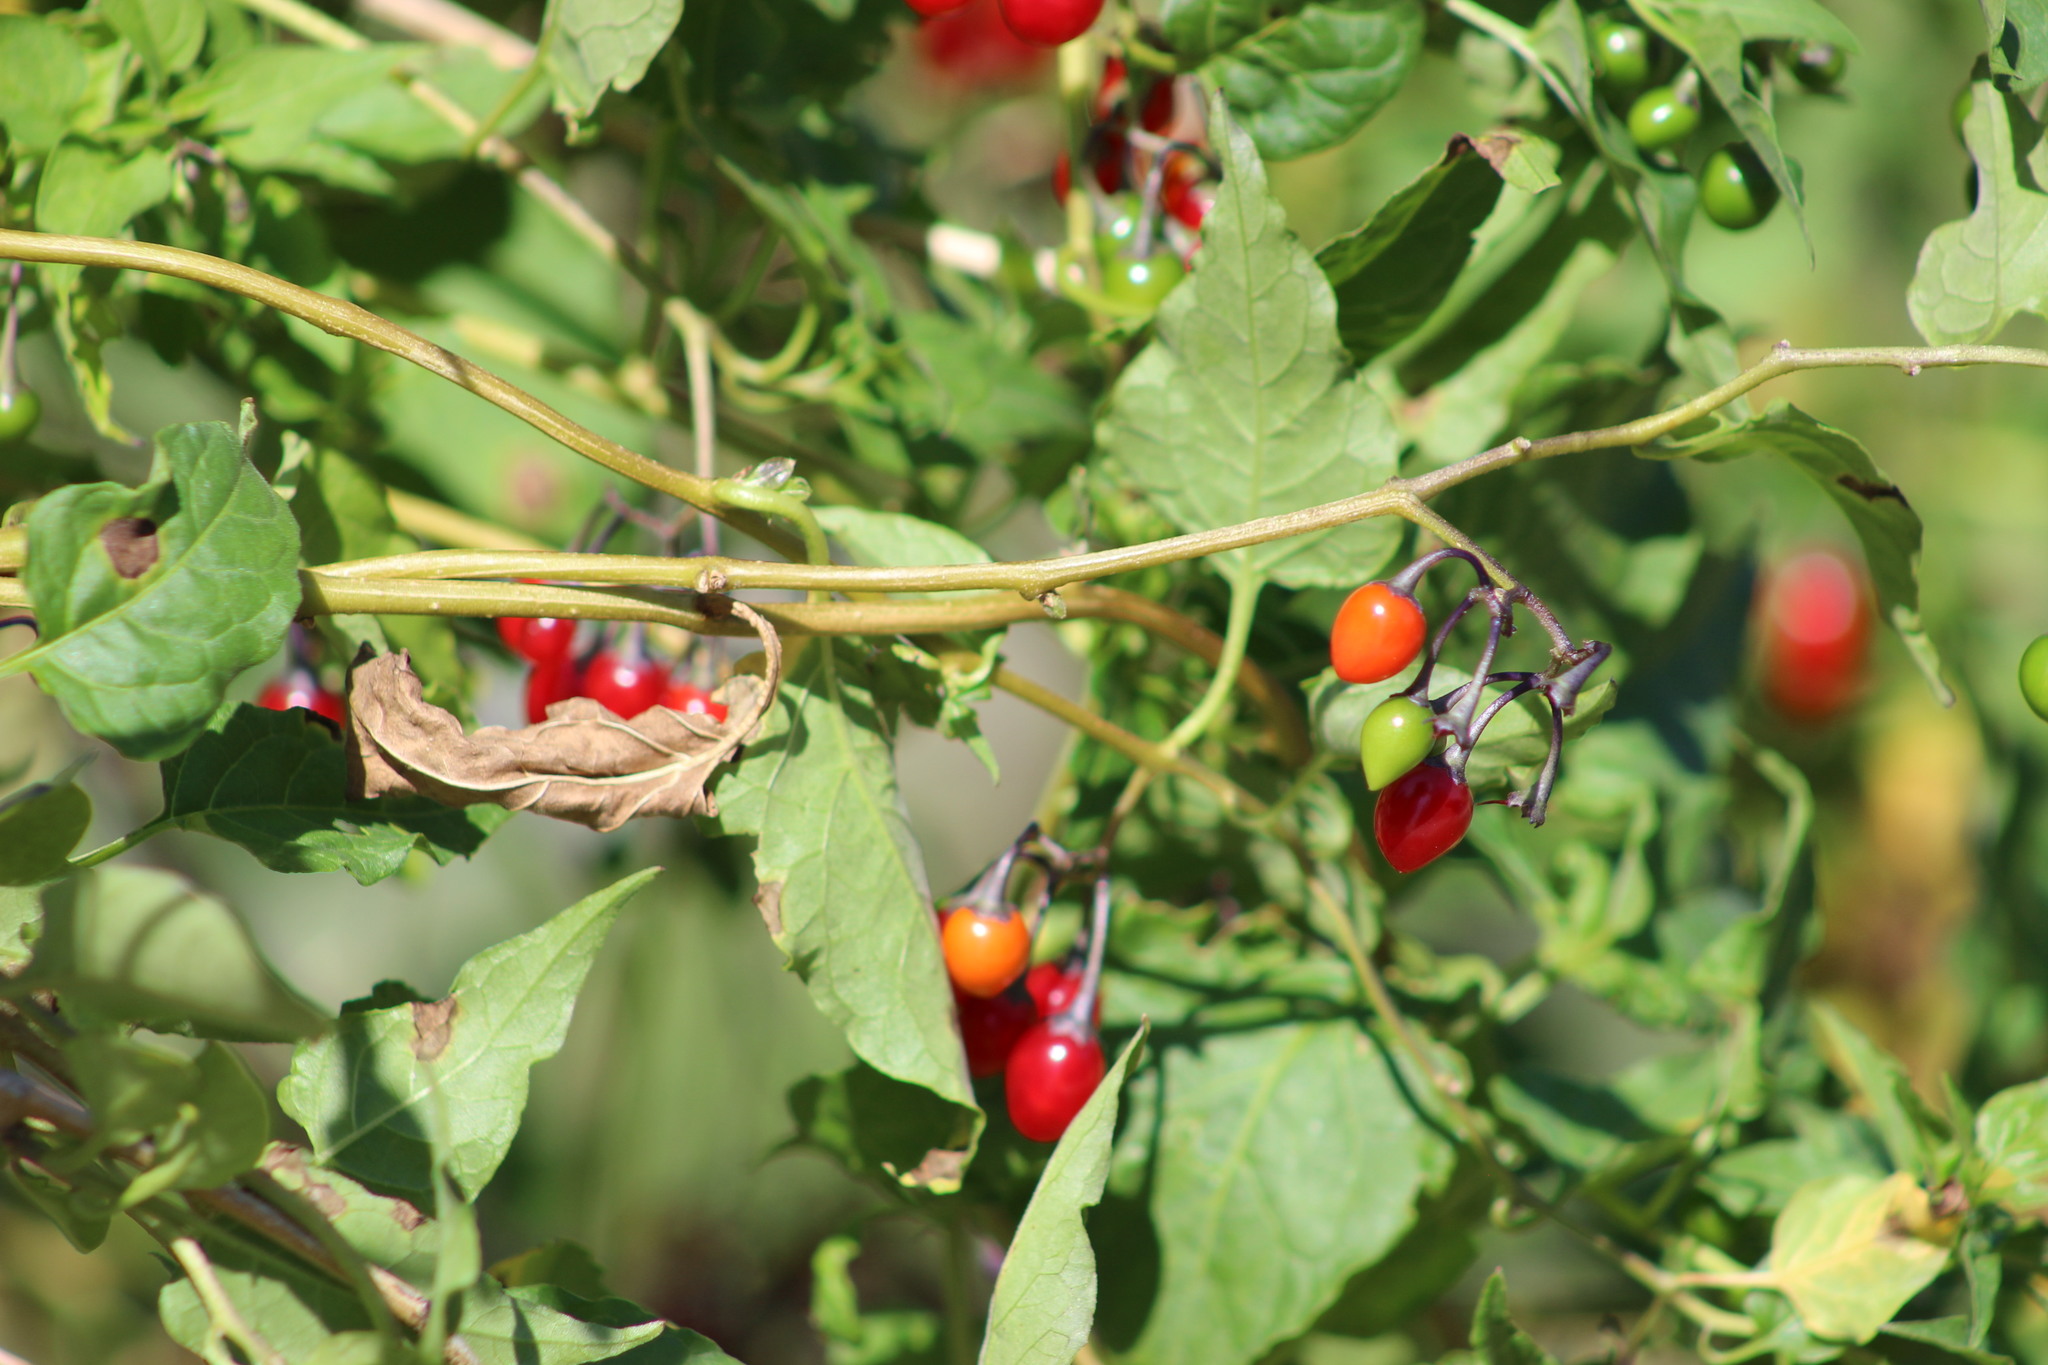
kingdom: Plantae
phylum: Tracheophyta
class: Magnoliopsida
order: Solanales
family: Solanaceae
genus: Solanum
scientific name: Solanum dulcamara
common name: Climbing nightshade
